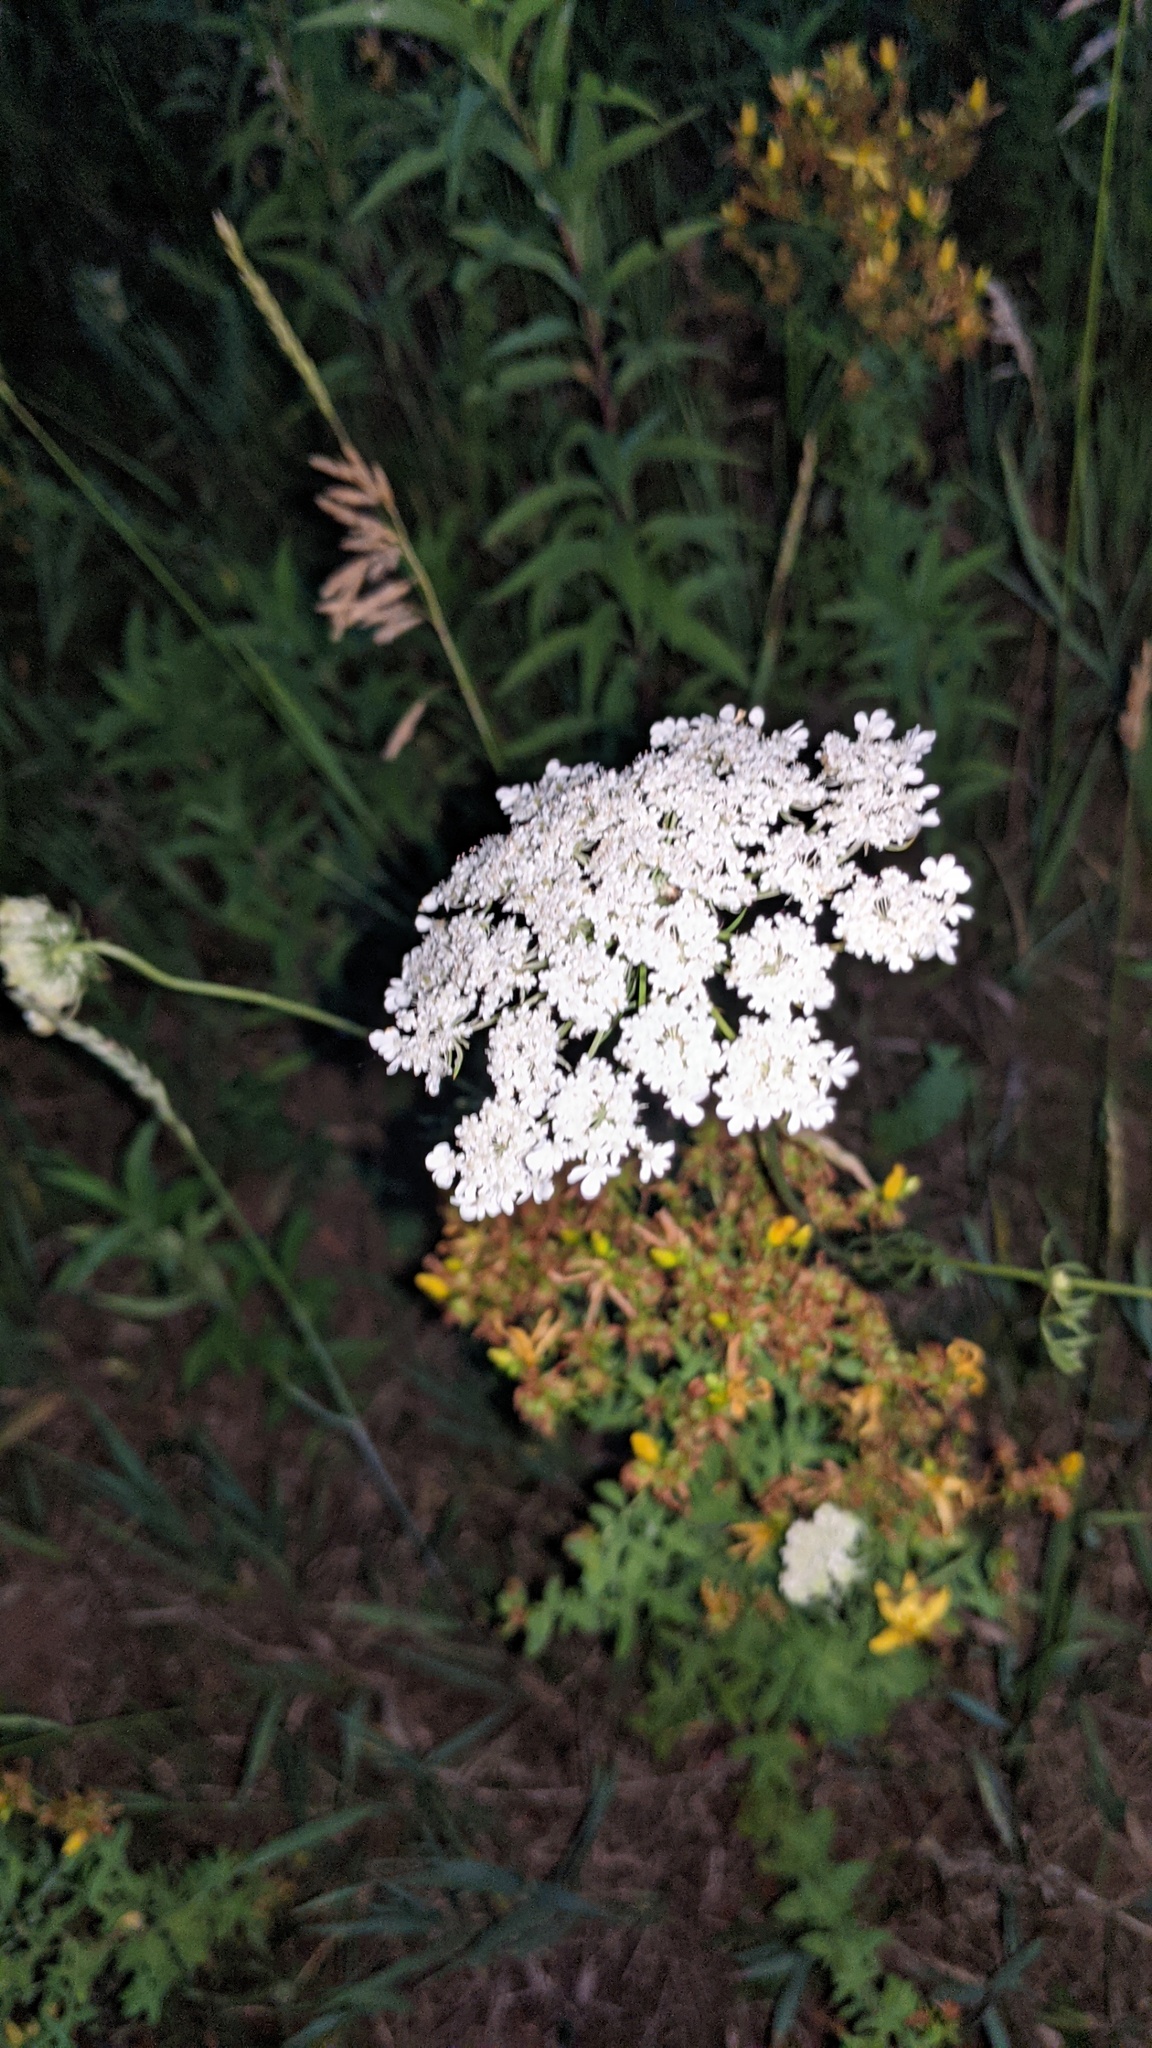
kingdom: Plantae
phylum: Tracheophyta
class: Magnoliopsida
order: Apiales
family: Apiaceae
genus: Daucus
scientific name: Daucus carota
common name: Wild carrot
